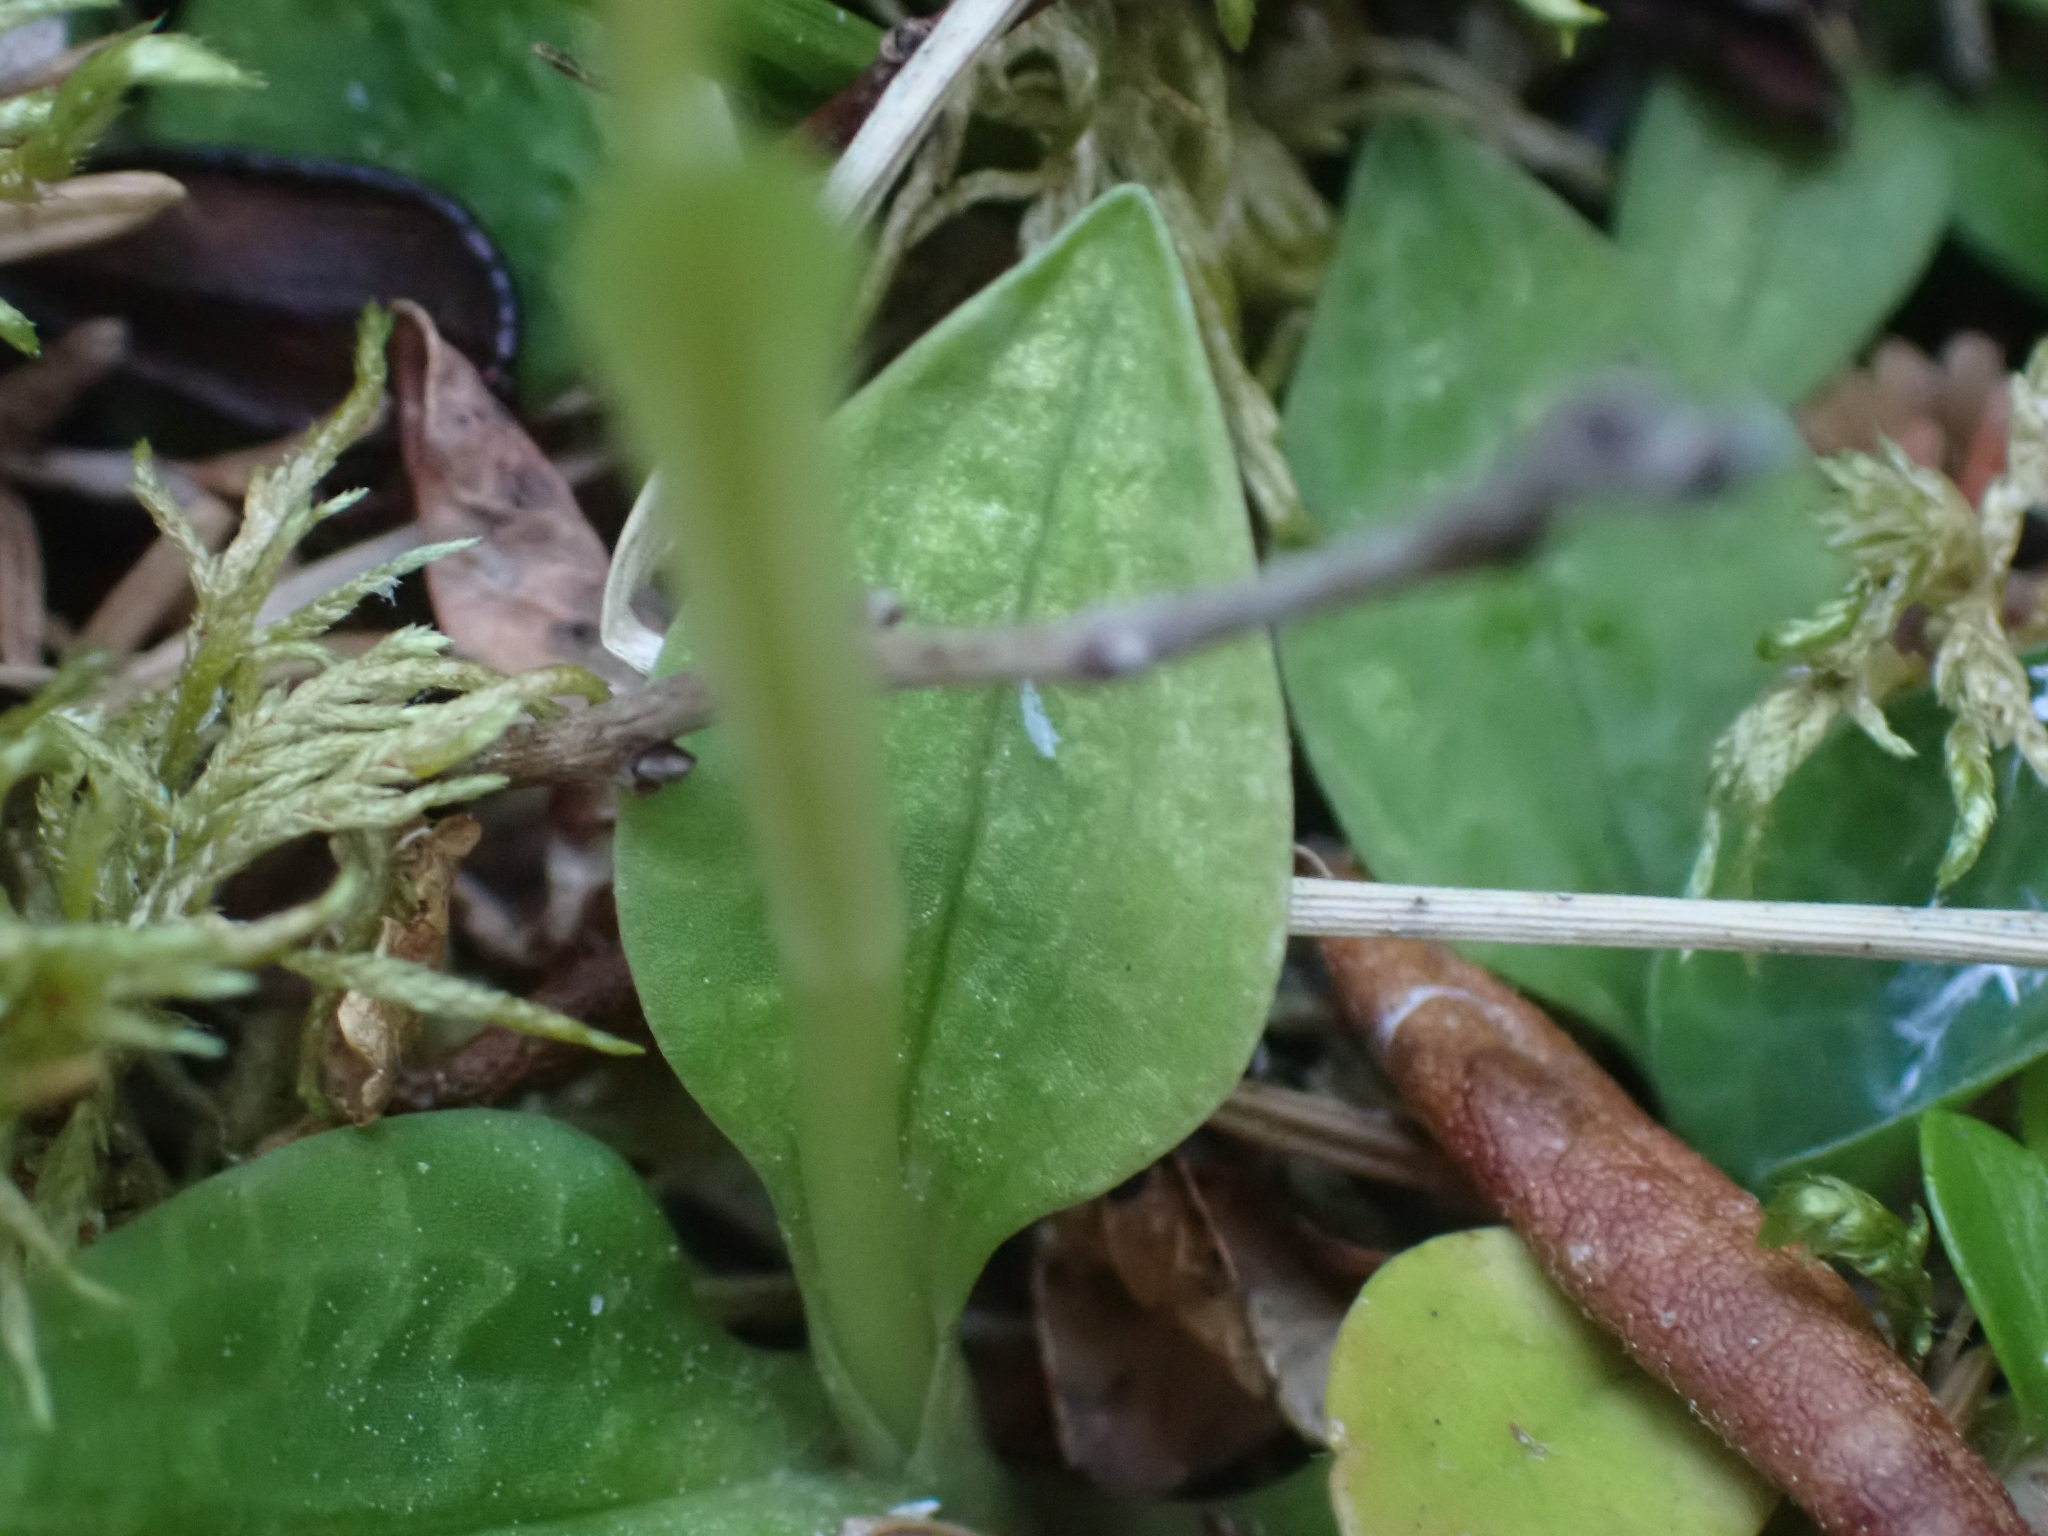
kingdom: Plantae
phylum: Tracheophyta
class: Liliopsida
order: Asparagales
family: Orchidaceae
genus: Goodyera
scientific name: Goodyera repens
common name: Creeping lady's-tresses
